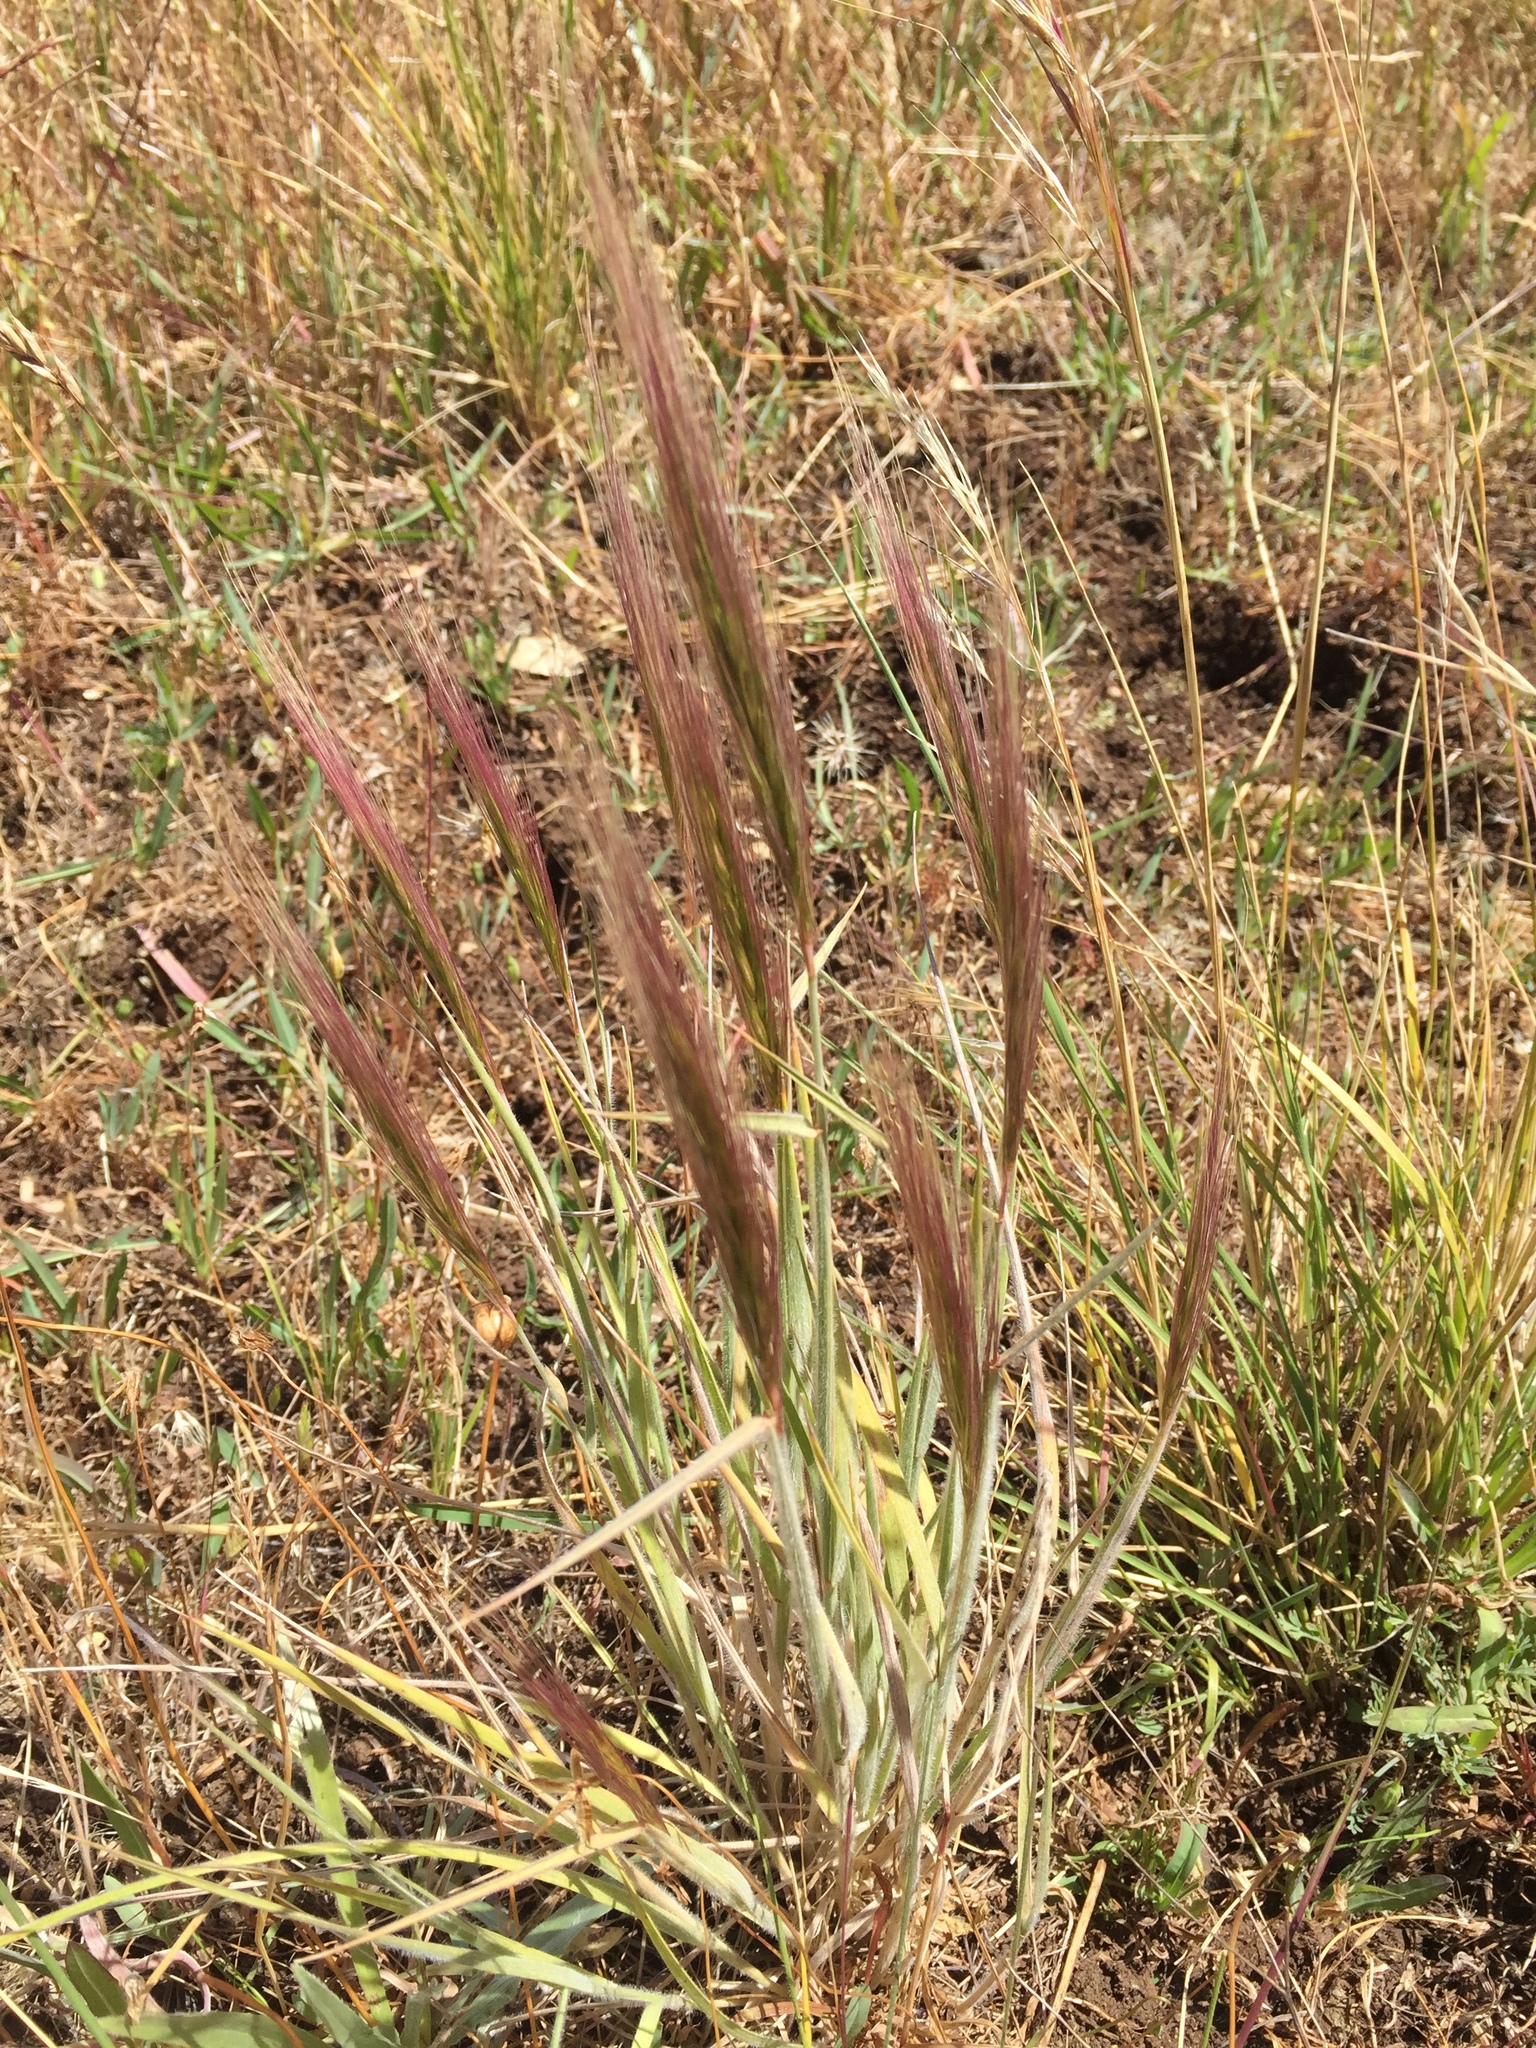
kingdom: Plantae
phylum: Tracheophyta
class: Liliopsida
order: Poales
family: Poaceae
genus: Elymus
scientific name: Elymus multisetus
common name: Big squirreltail
